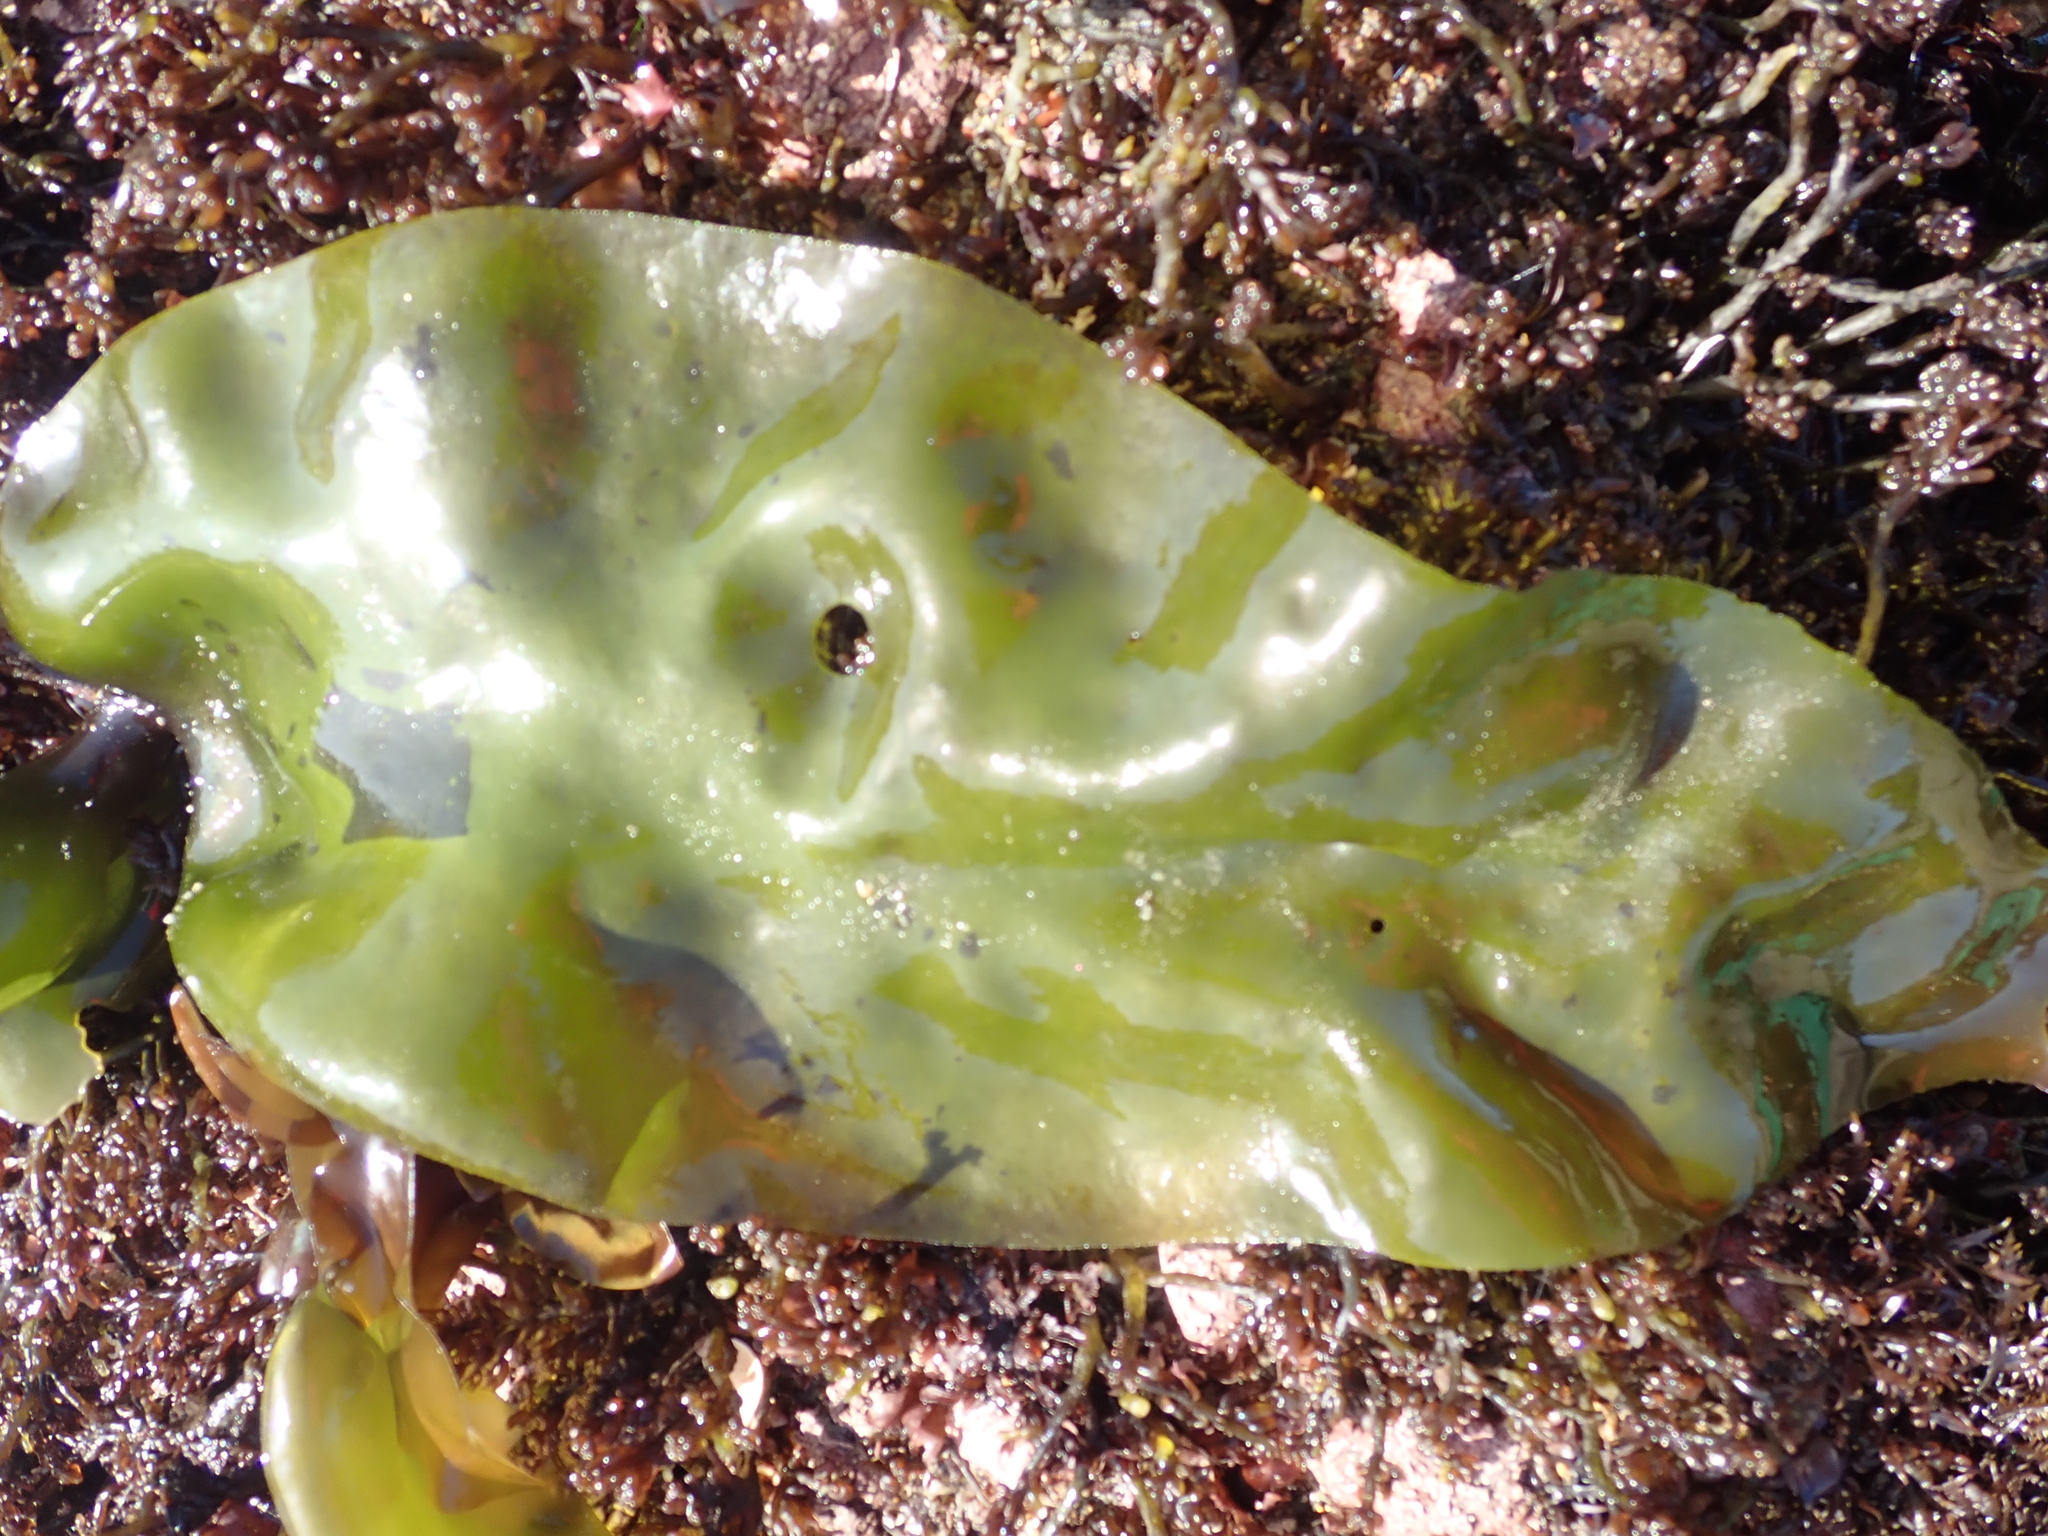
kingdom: Plantae
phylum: Rhodophyta
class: Florideophyceae
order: Gigartinales
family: Gigartinaceae
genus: Mazzaella
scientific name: Mazzaella flaccida
